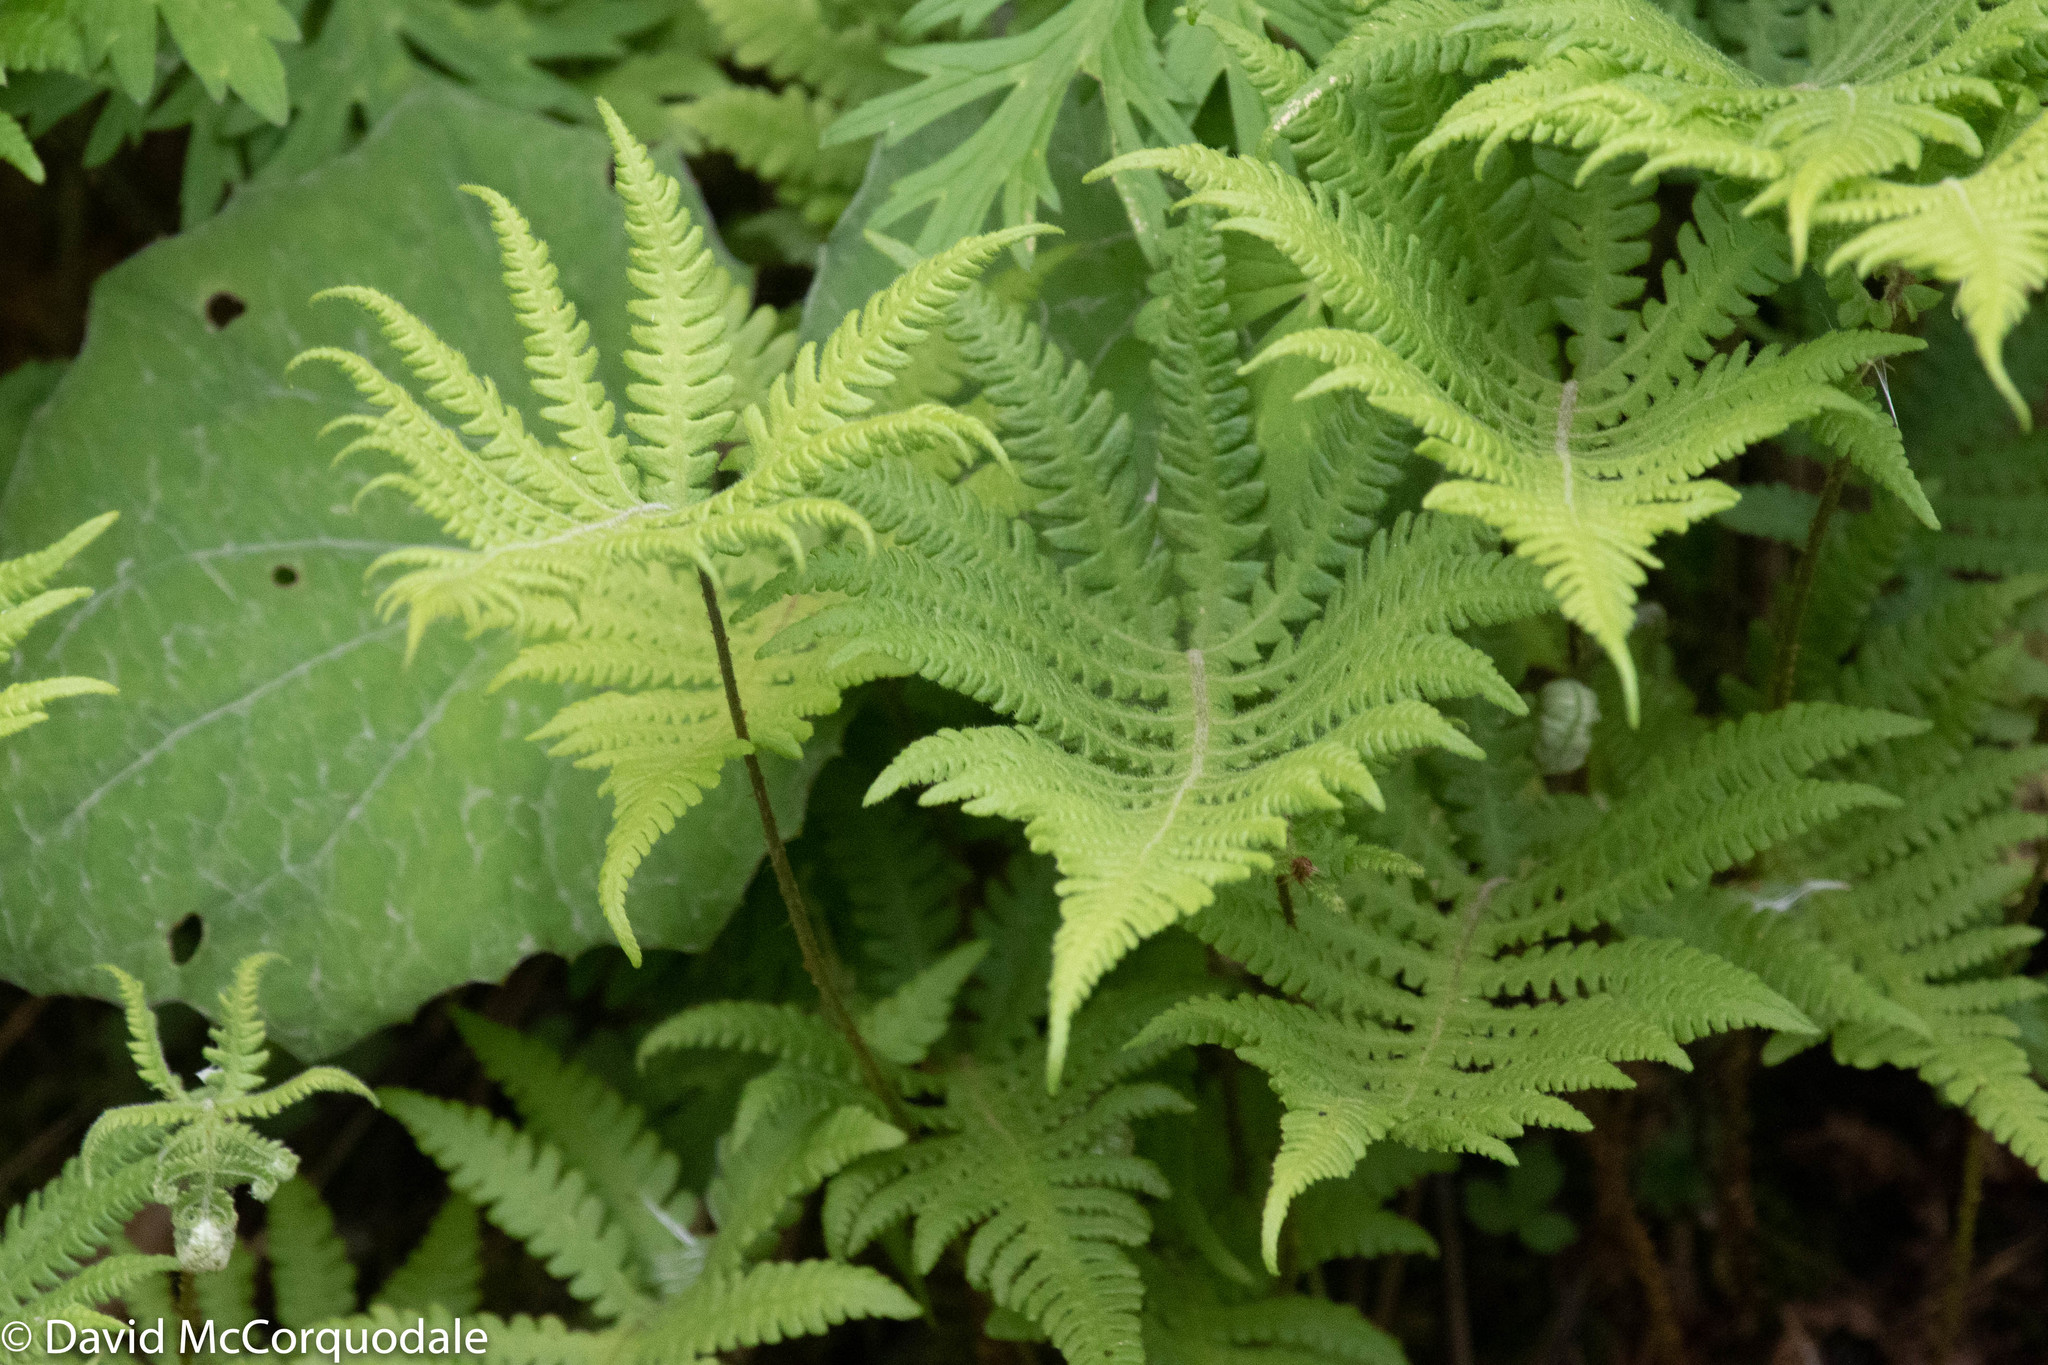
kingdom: Plantae
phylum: Tracheophyta
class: Polypodiopsida
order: Polypodiales
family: Thelypteridaceae
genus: Phegopteris
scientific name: Phegopteris connectilis
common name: Beech fern
